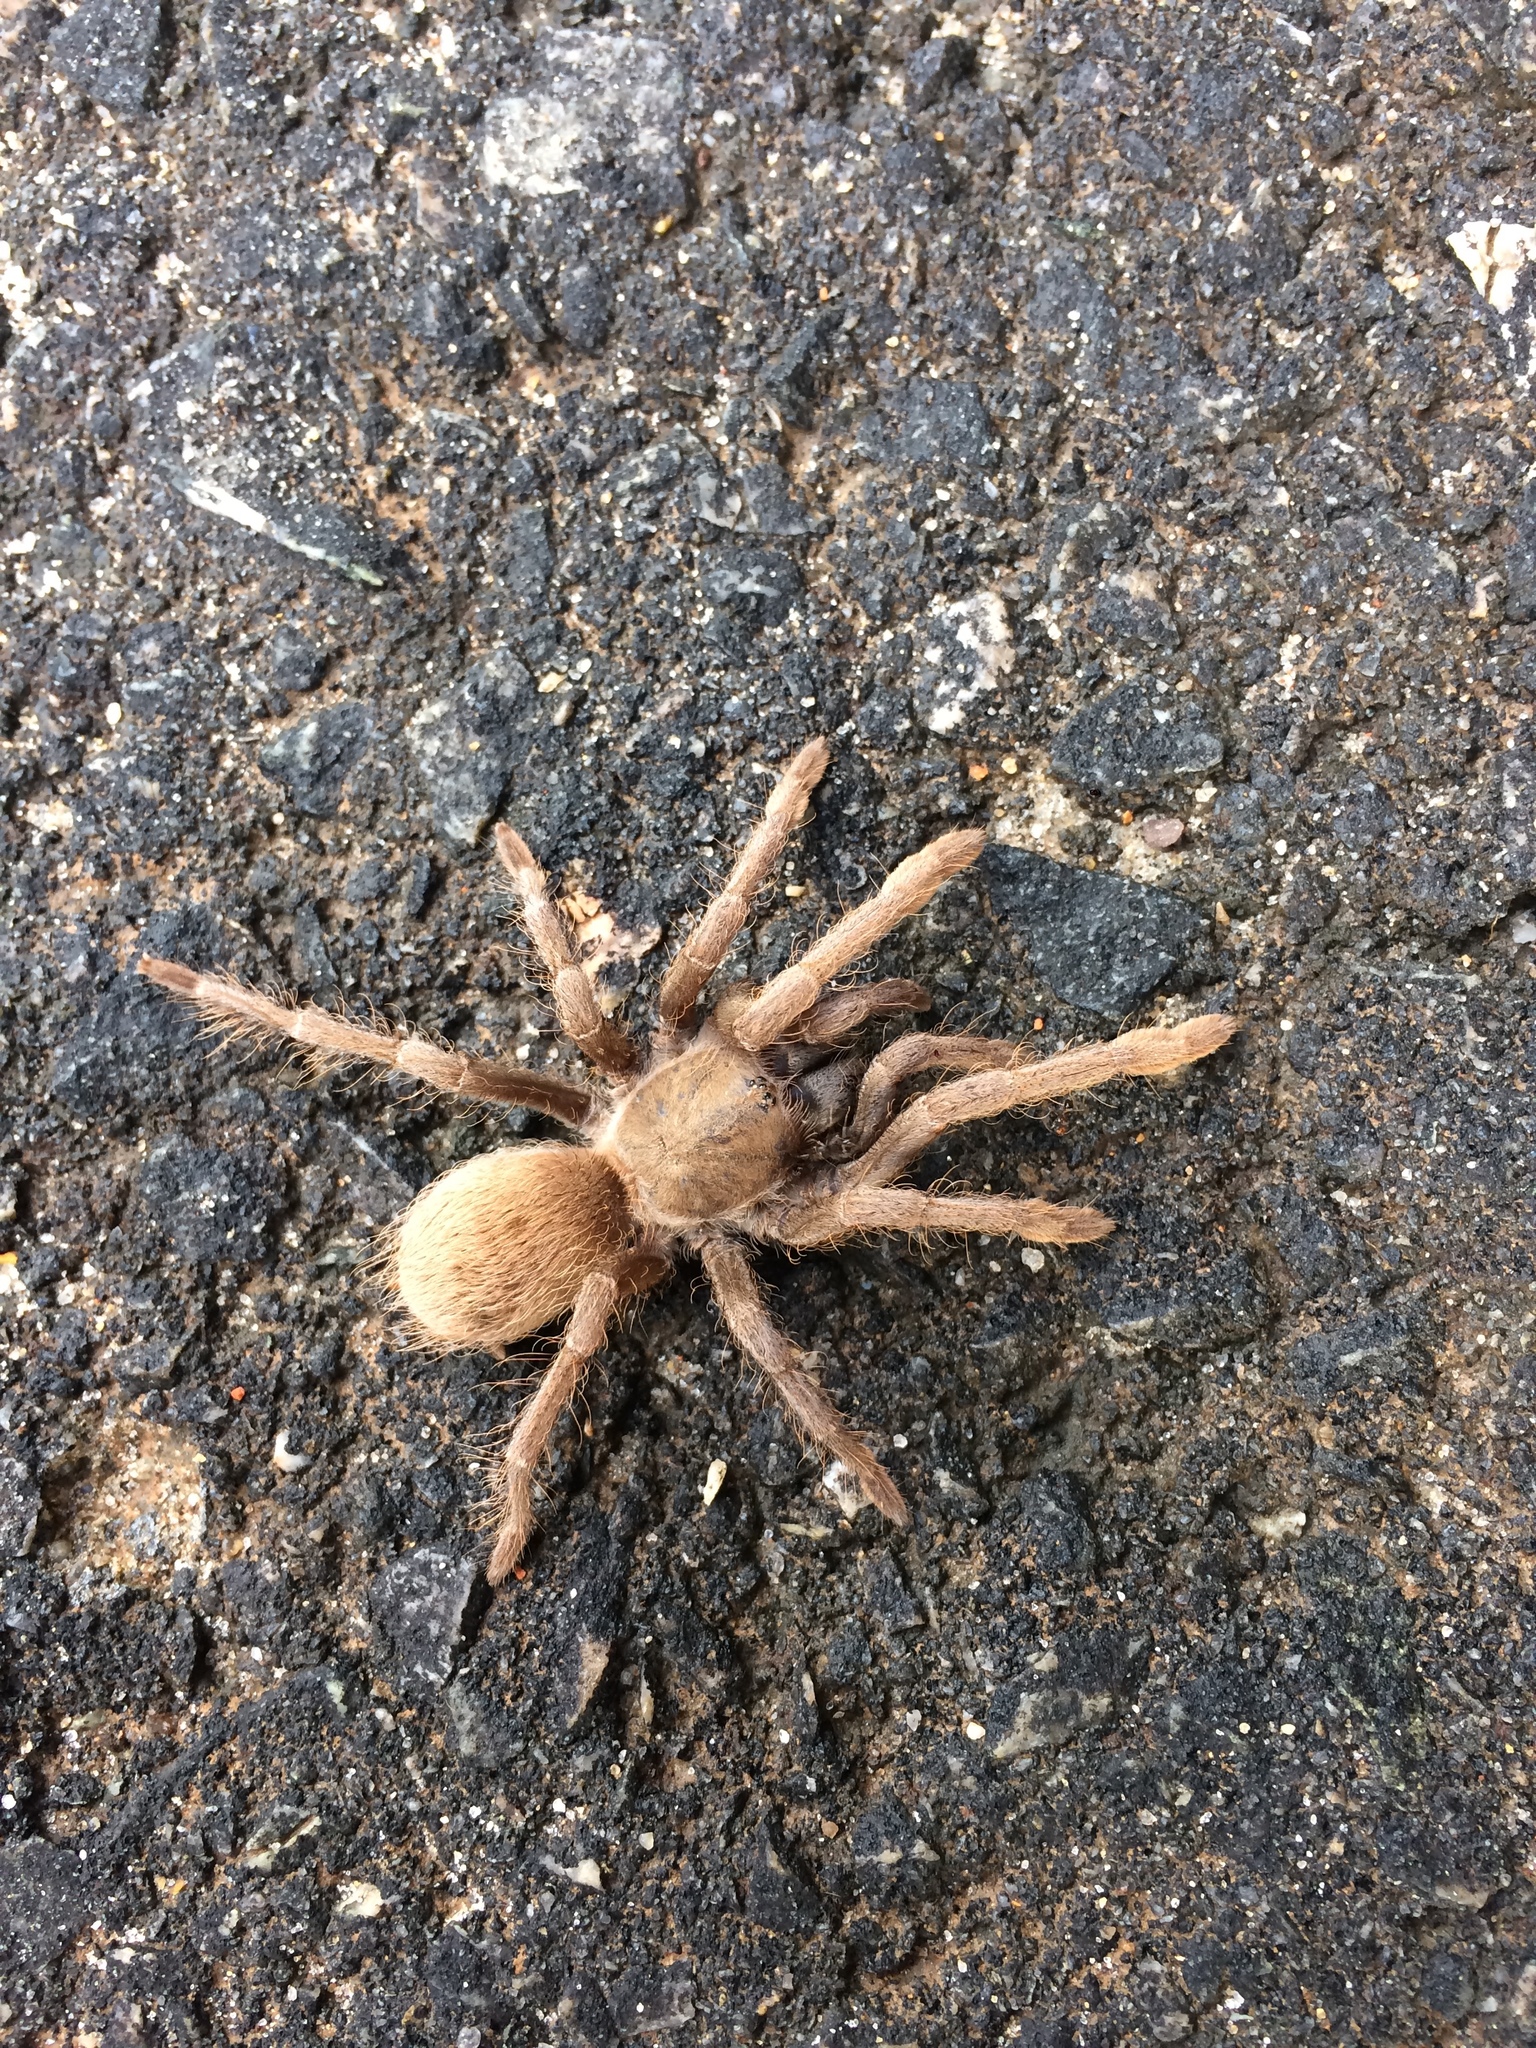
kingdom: Animalia
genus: Crypsidromus
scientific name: Crypsidromus
